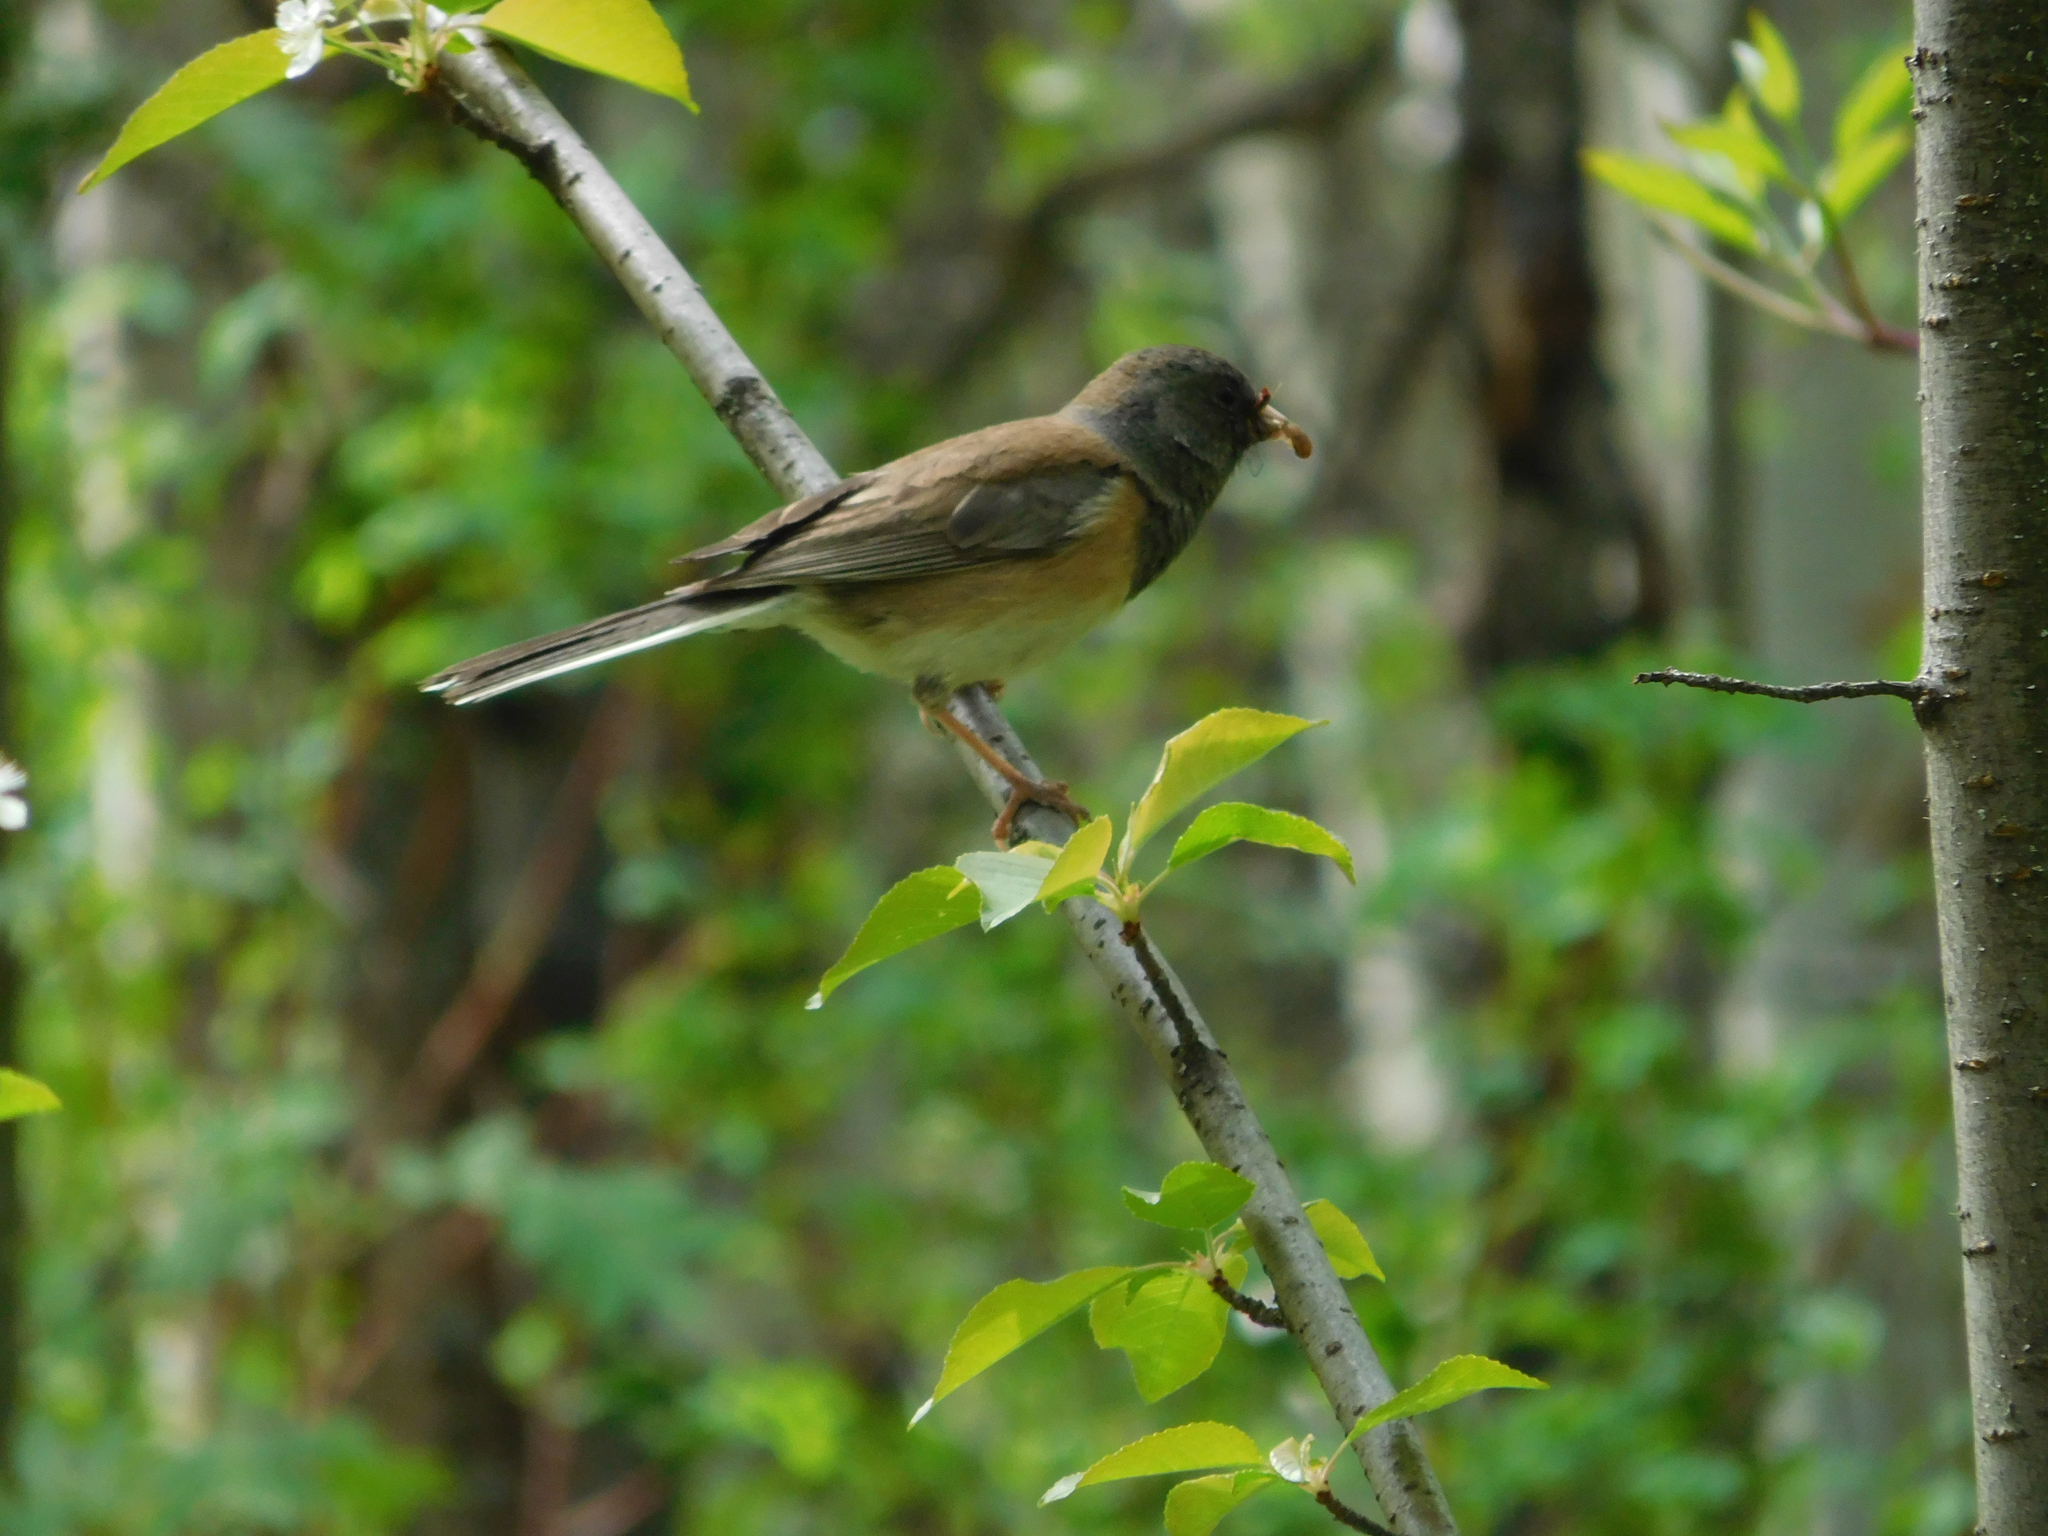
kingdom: Animalia
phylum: Chordata
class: Aves
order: Passeriformes
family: Passerellidae
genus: Junco
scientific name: Junco hyemalis
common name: Dark-eyed junco
